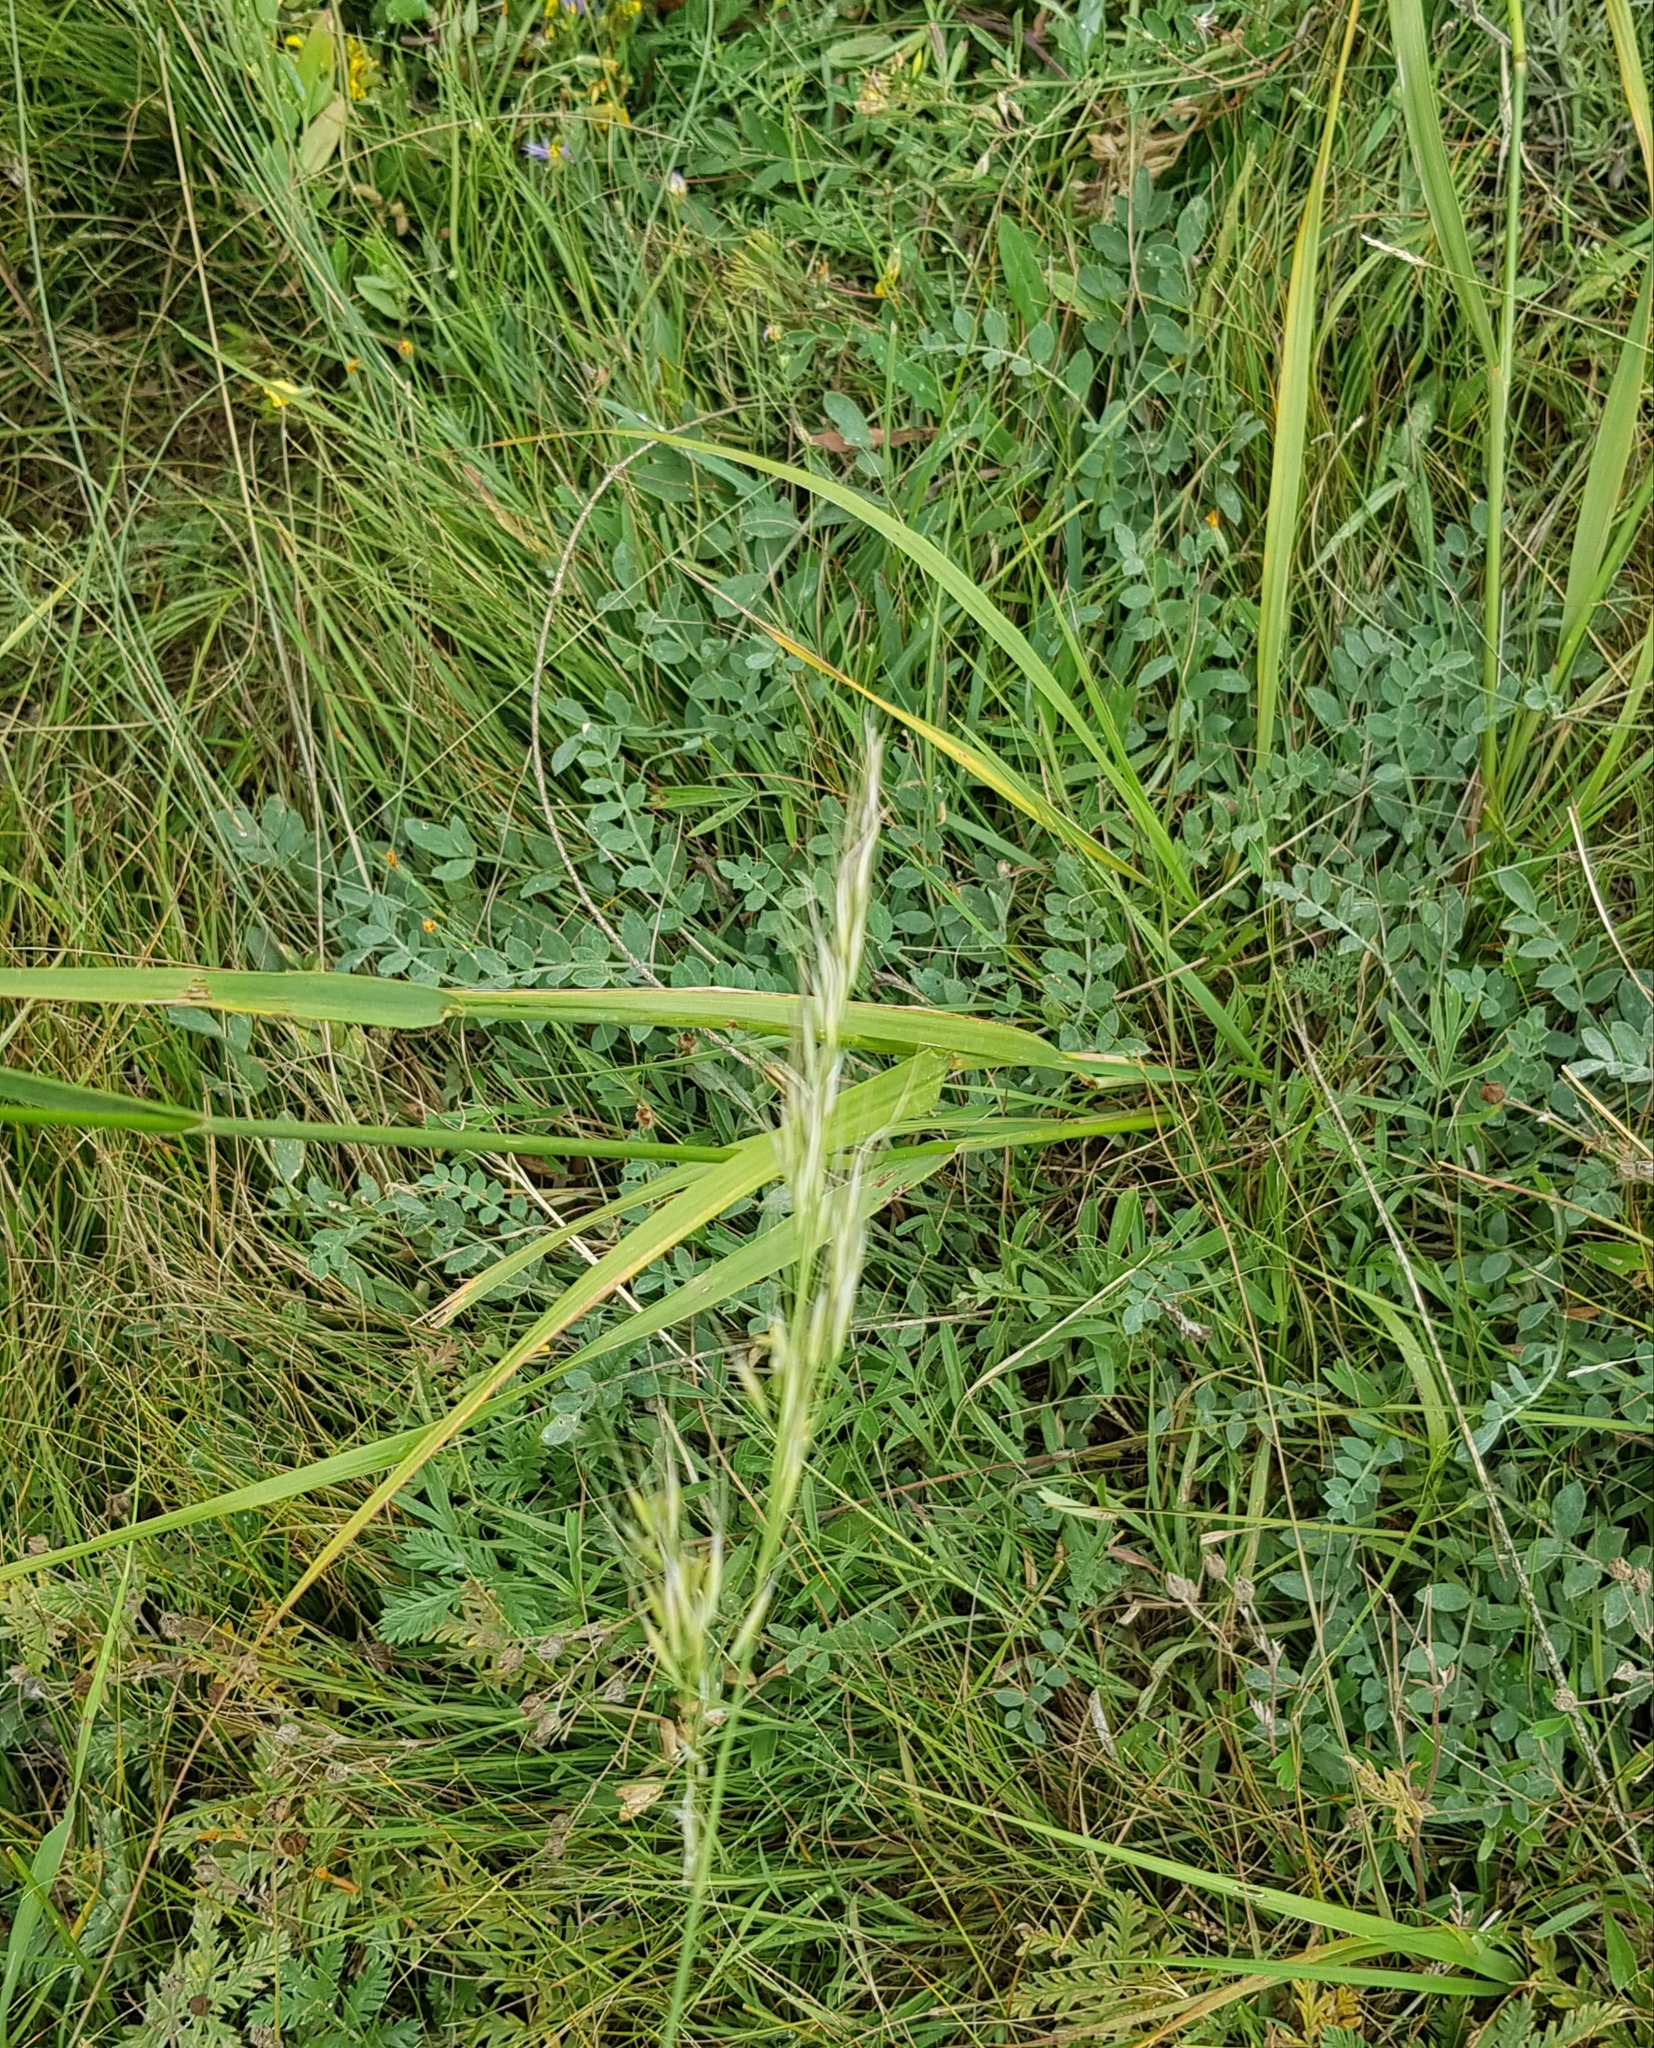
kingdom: Plantae
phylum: Tracheophyta
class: Liliopsida
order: Poales
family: Poaceae
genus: Achnatherum
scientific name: Achnatherum sibiricum
